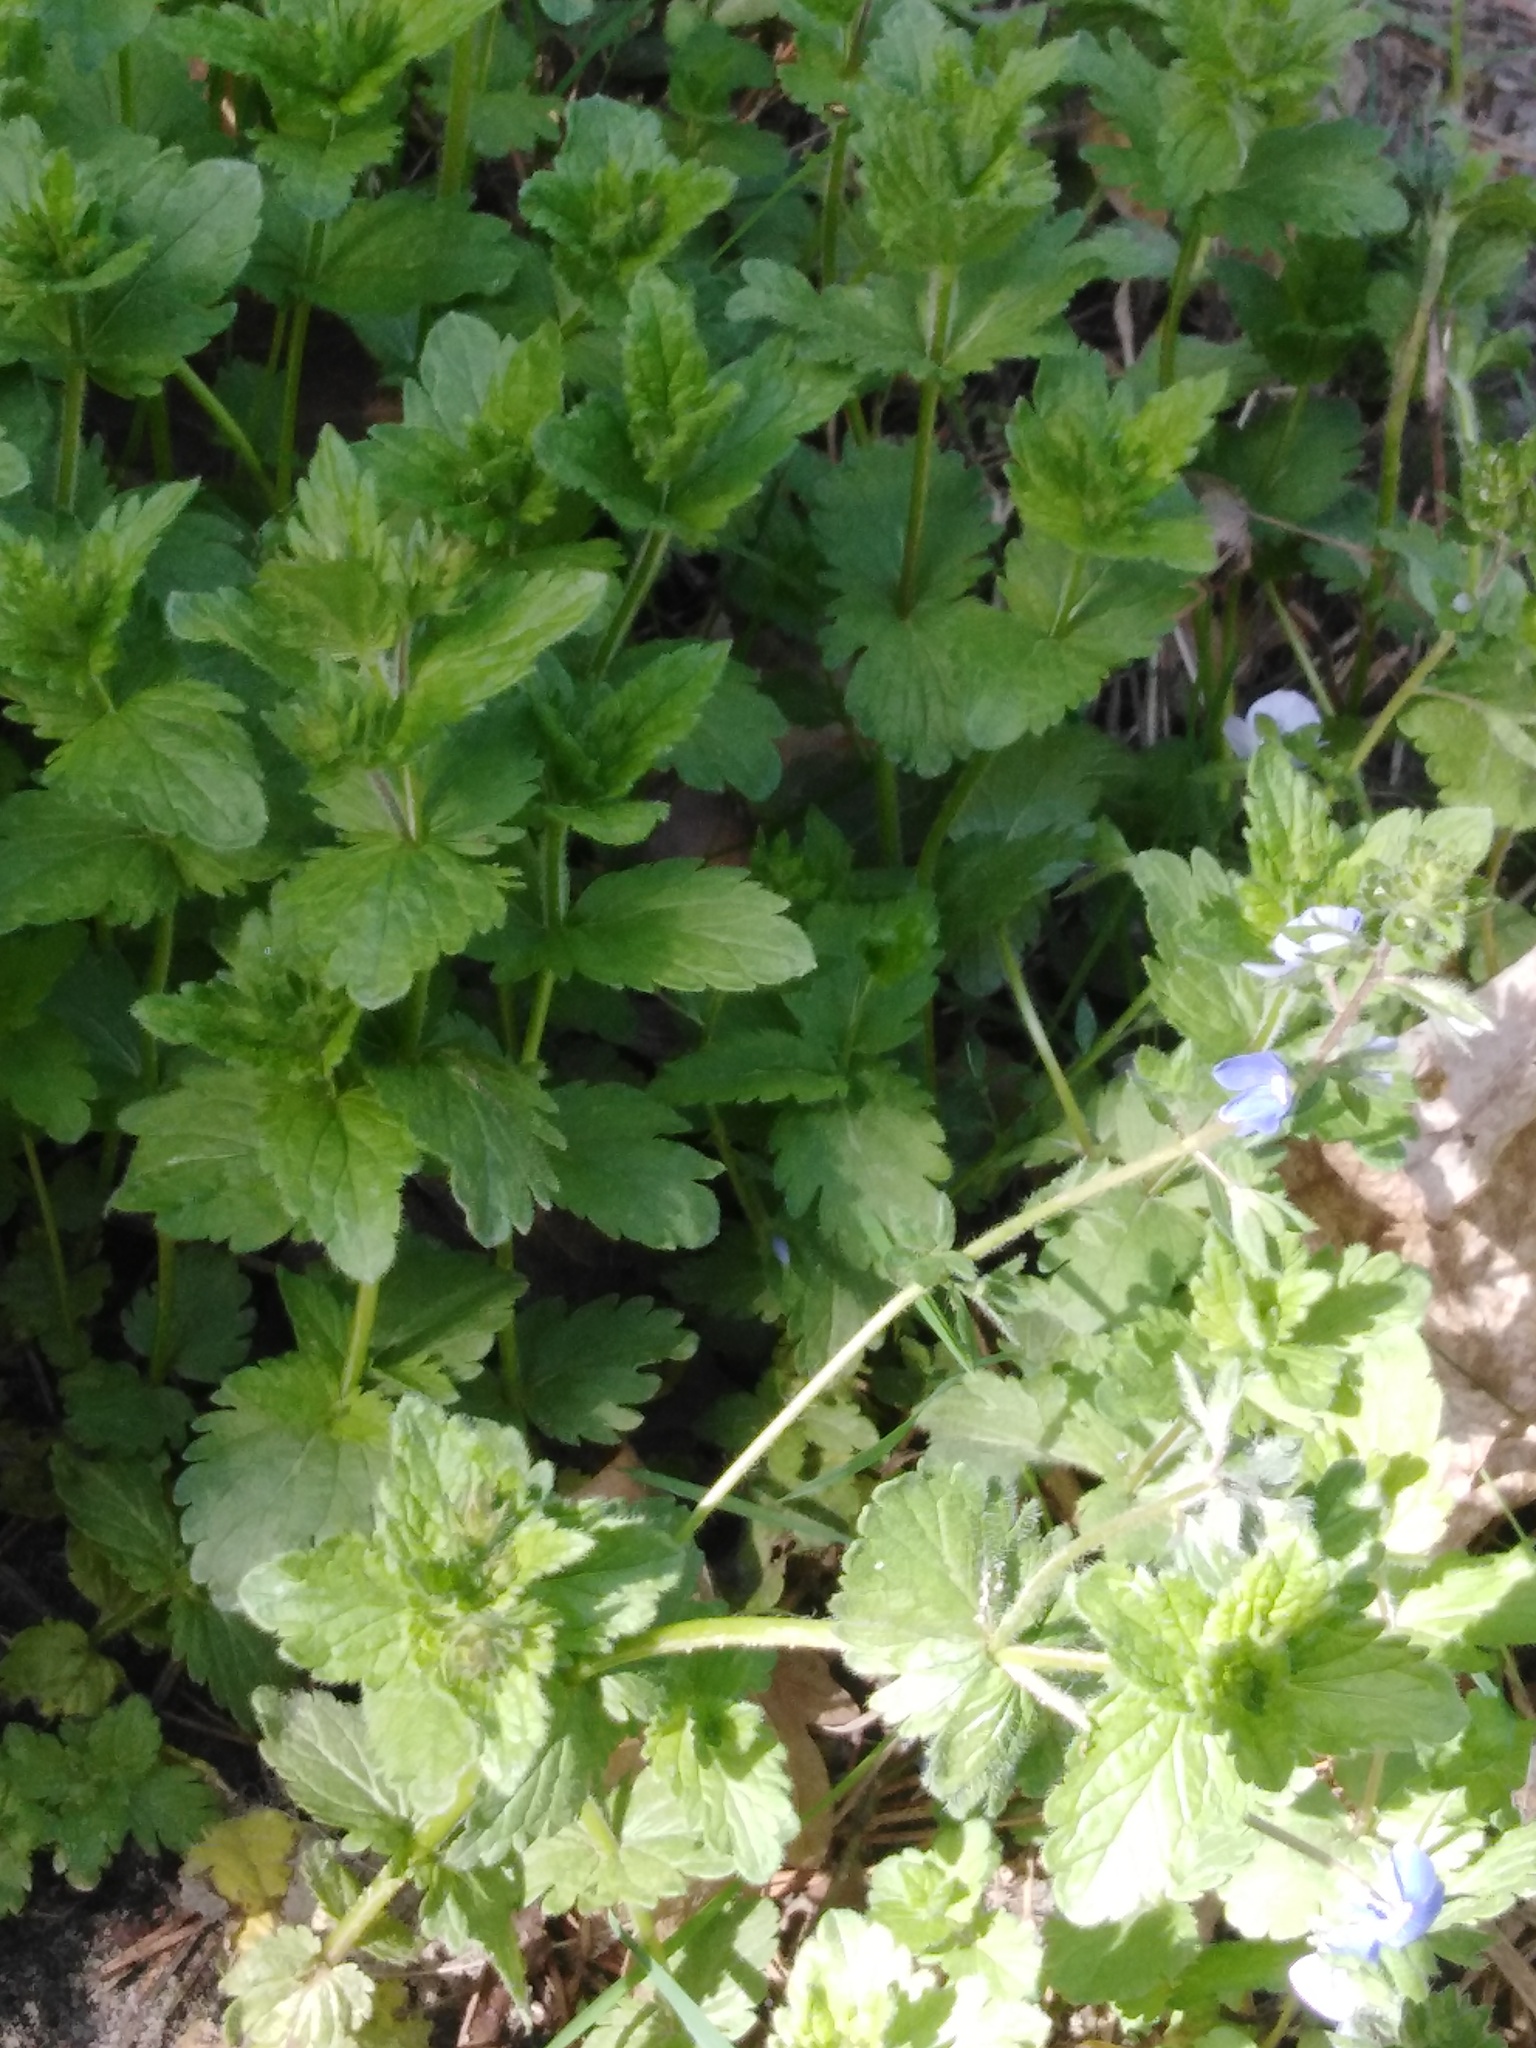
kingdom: Plantae
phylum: Tracheophyta
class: Magnoliopsida
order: Lamiales
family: Plantaginaceae
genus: Veronica
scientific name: Veronica chamaedrys
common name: Germander speedwell
